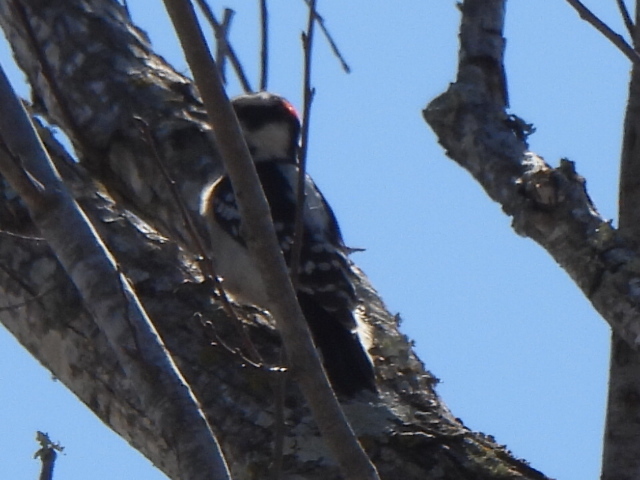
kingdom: Animalia
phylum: Chordata
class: Aves
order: Piciformes
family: Picidae
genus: Dryobates
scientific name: Dryobates pubescens
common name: Downy woodpecker
